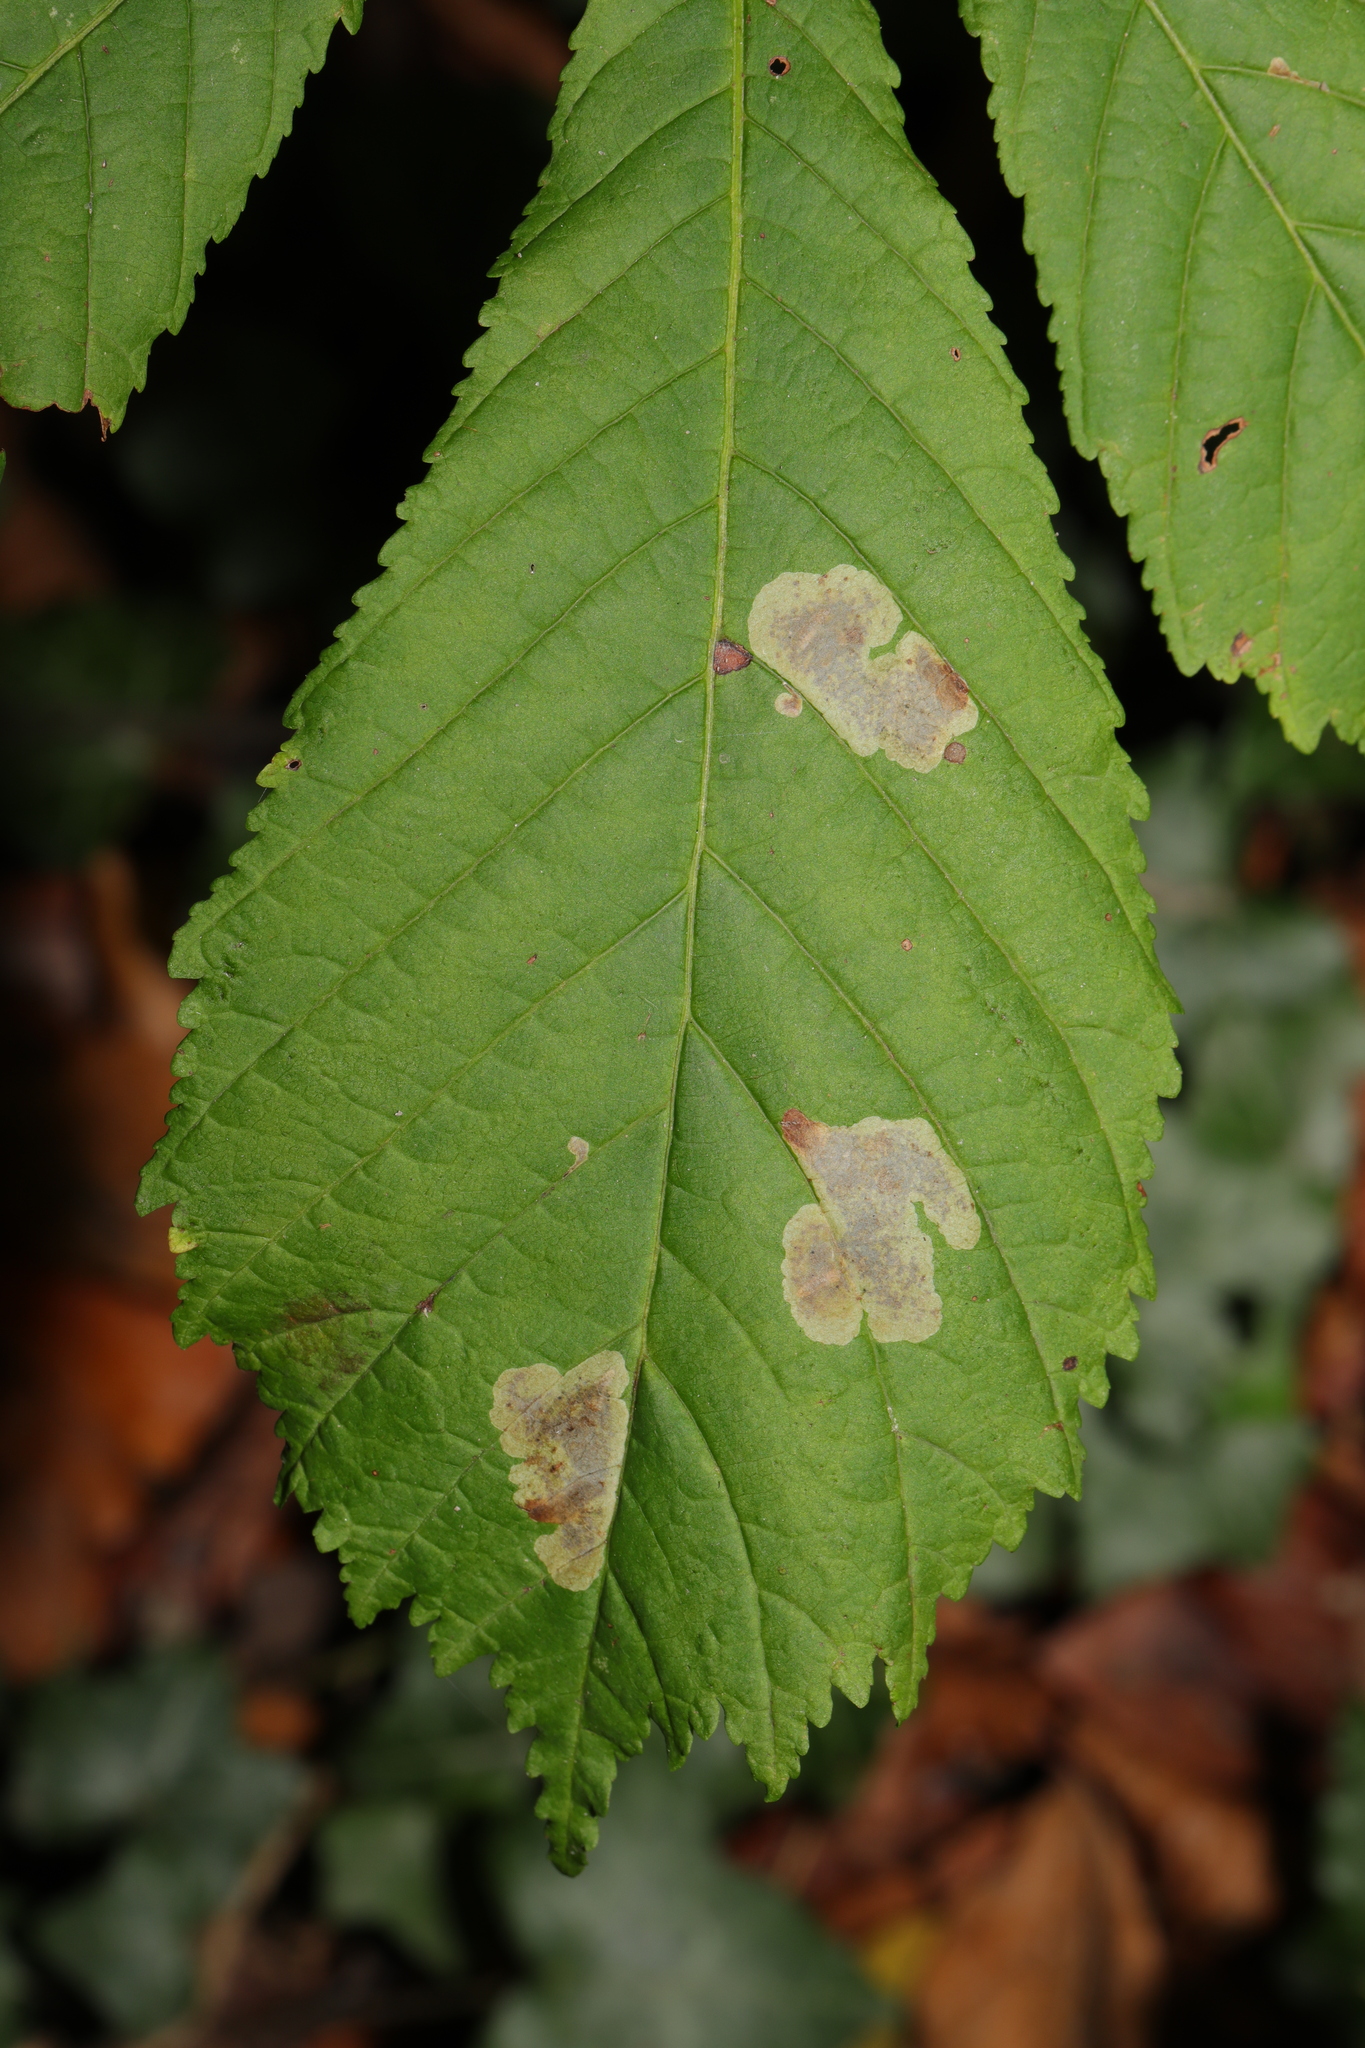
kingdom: Animalia
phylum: Arthropoda
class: Insecta
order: Lepidoptera
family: Gracillariidae
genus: Cameraria
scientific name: Cameraria ohridella
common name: Horse-chestnut leaf-miner
